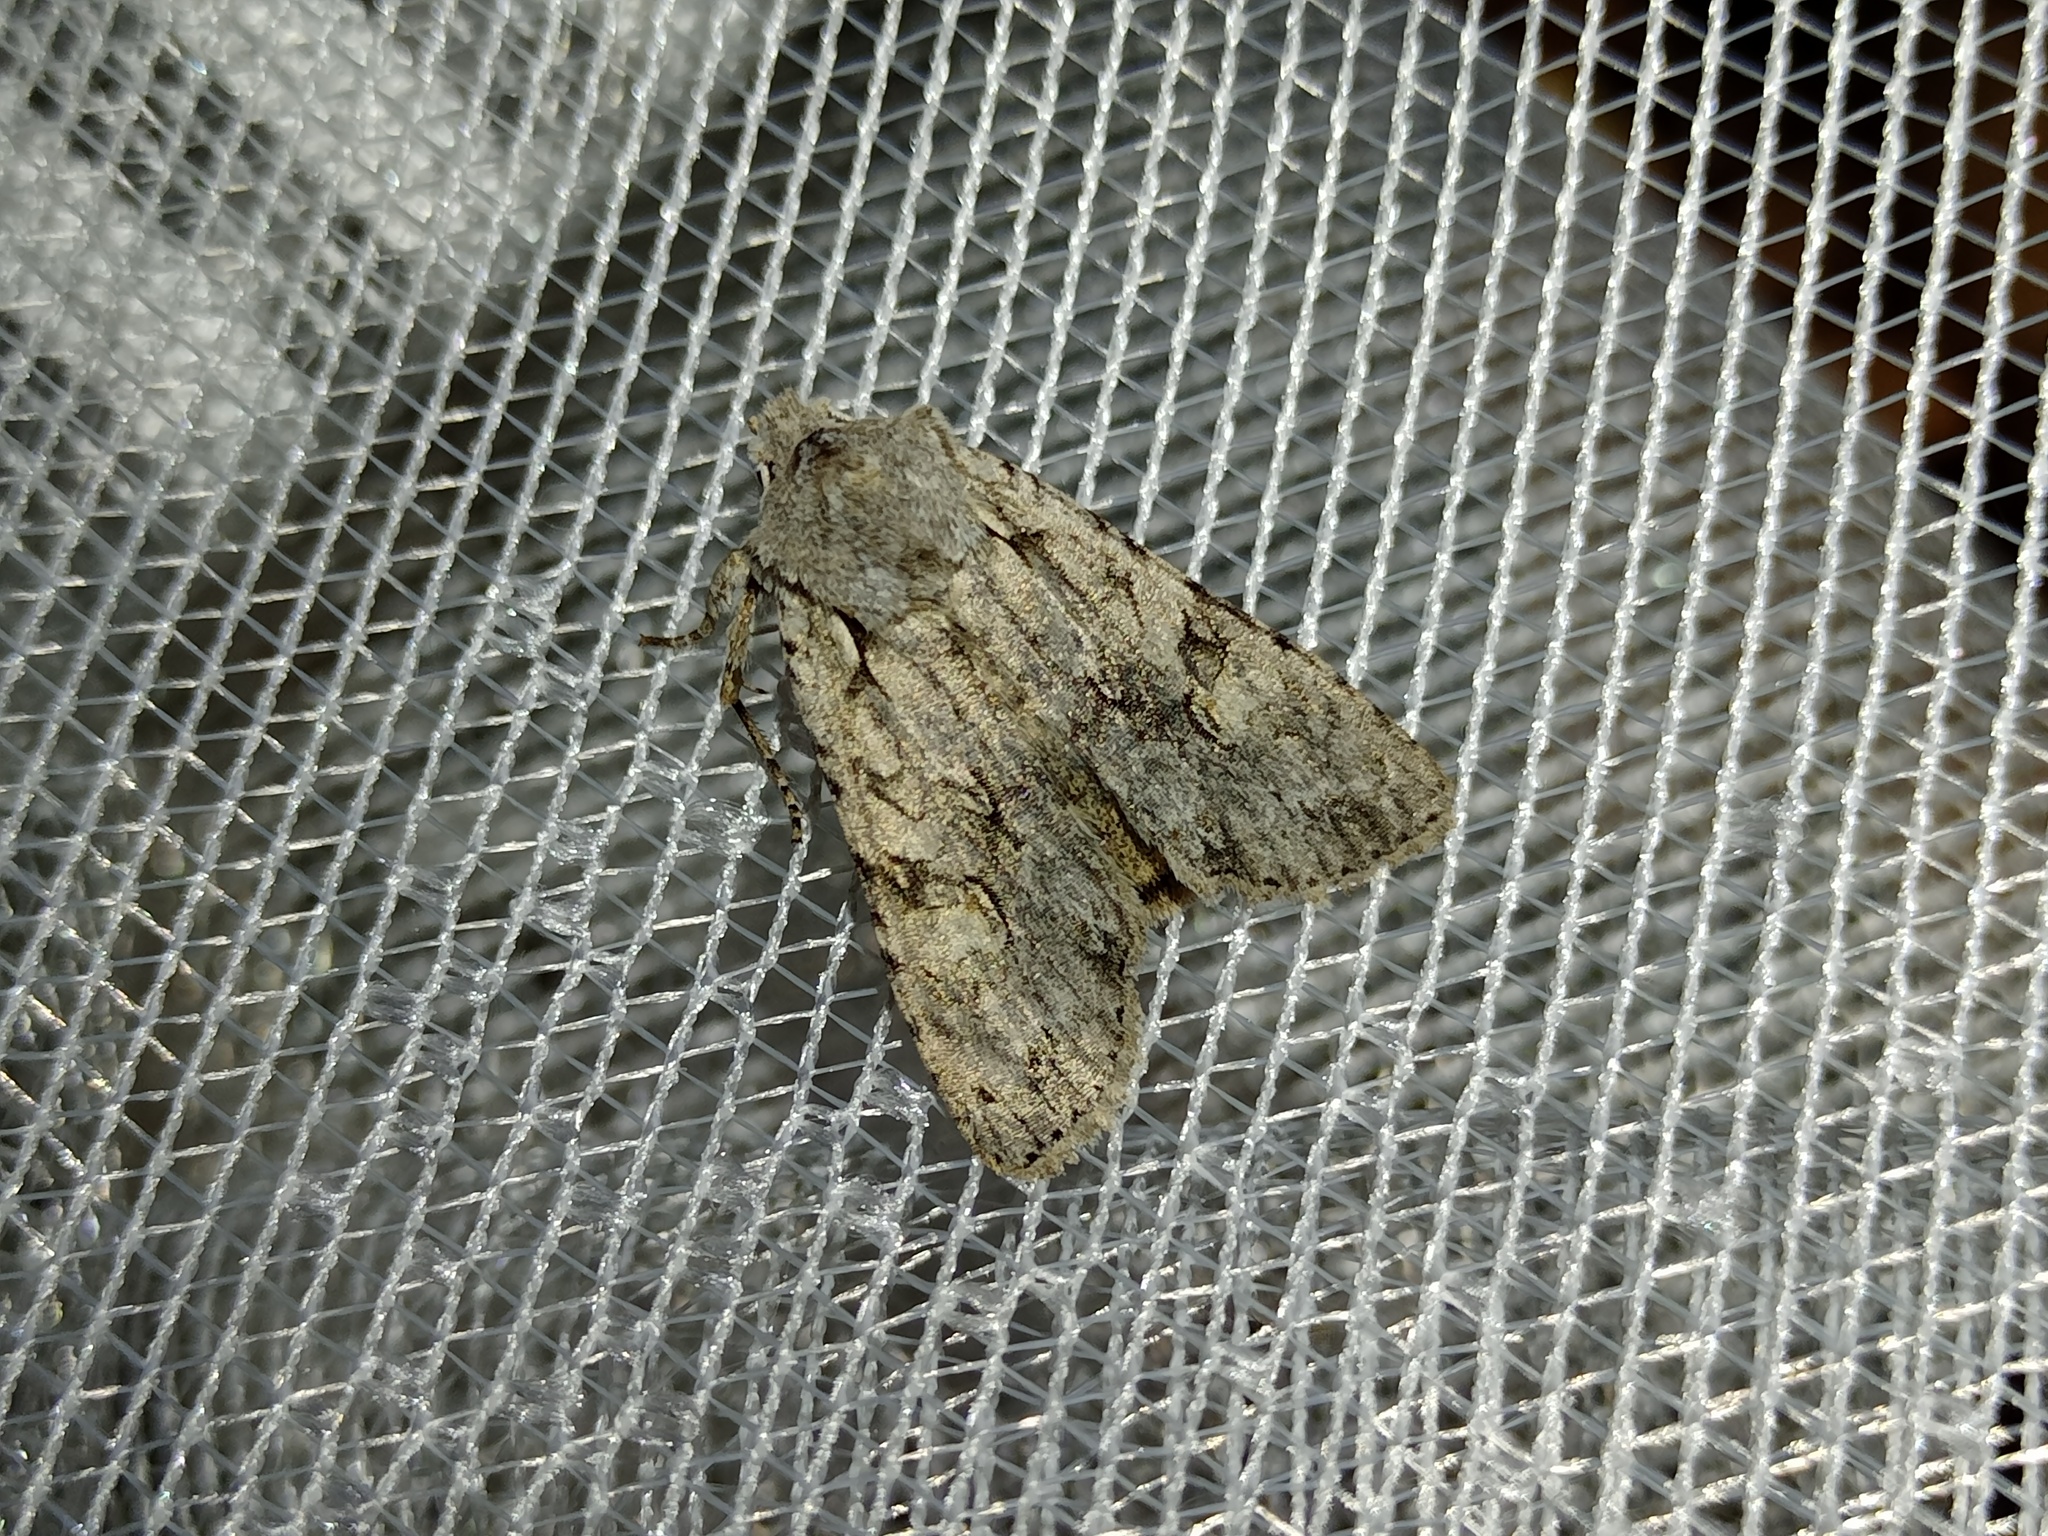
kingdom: Animalia
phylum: Arthropoda
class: Insecta
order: Lepidoptera
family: Noctuidae
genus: Lithophane
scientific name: Lithophane ornitopus
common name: Grey shoulder-knot
